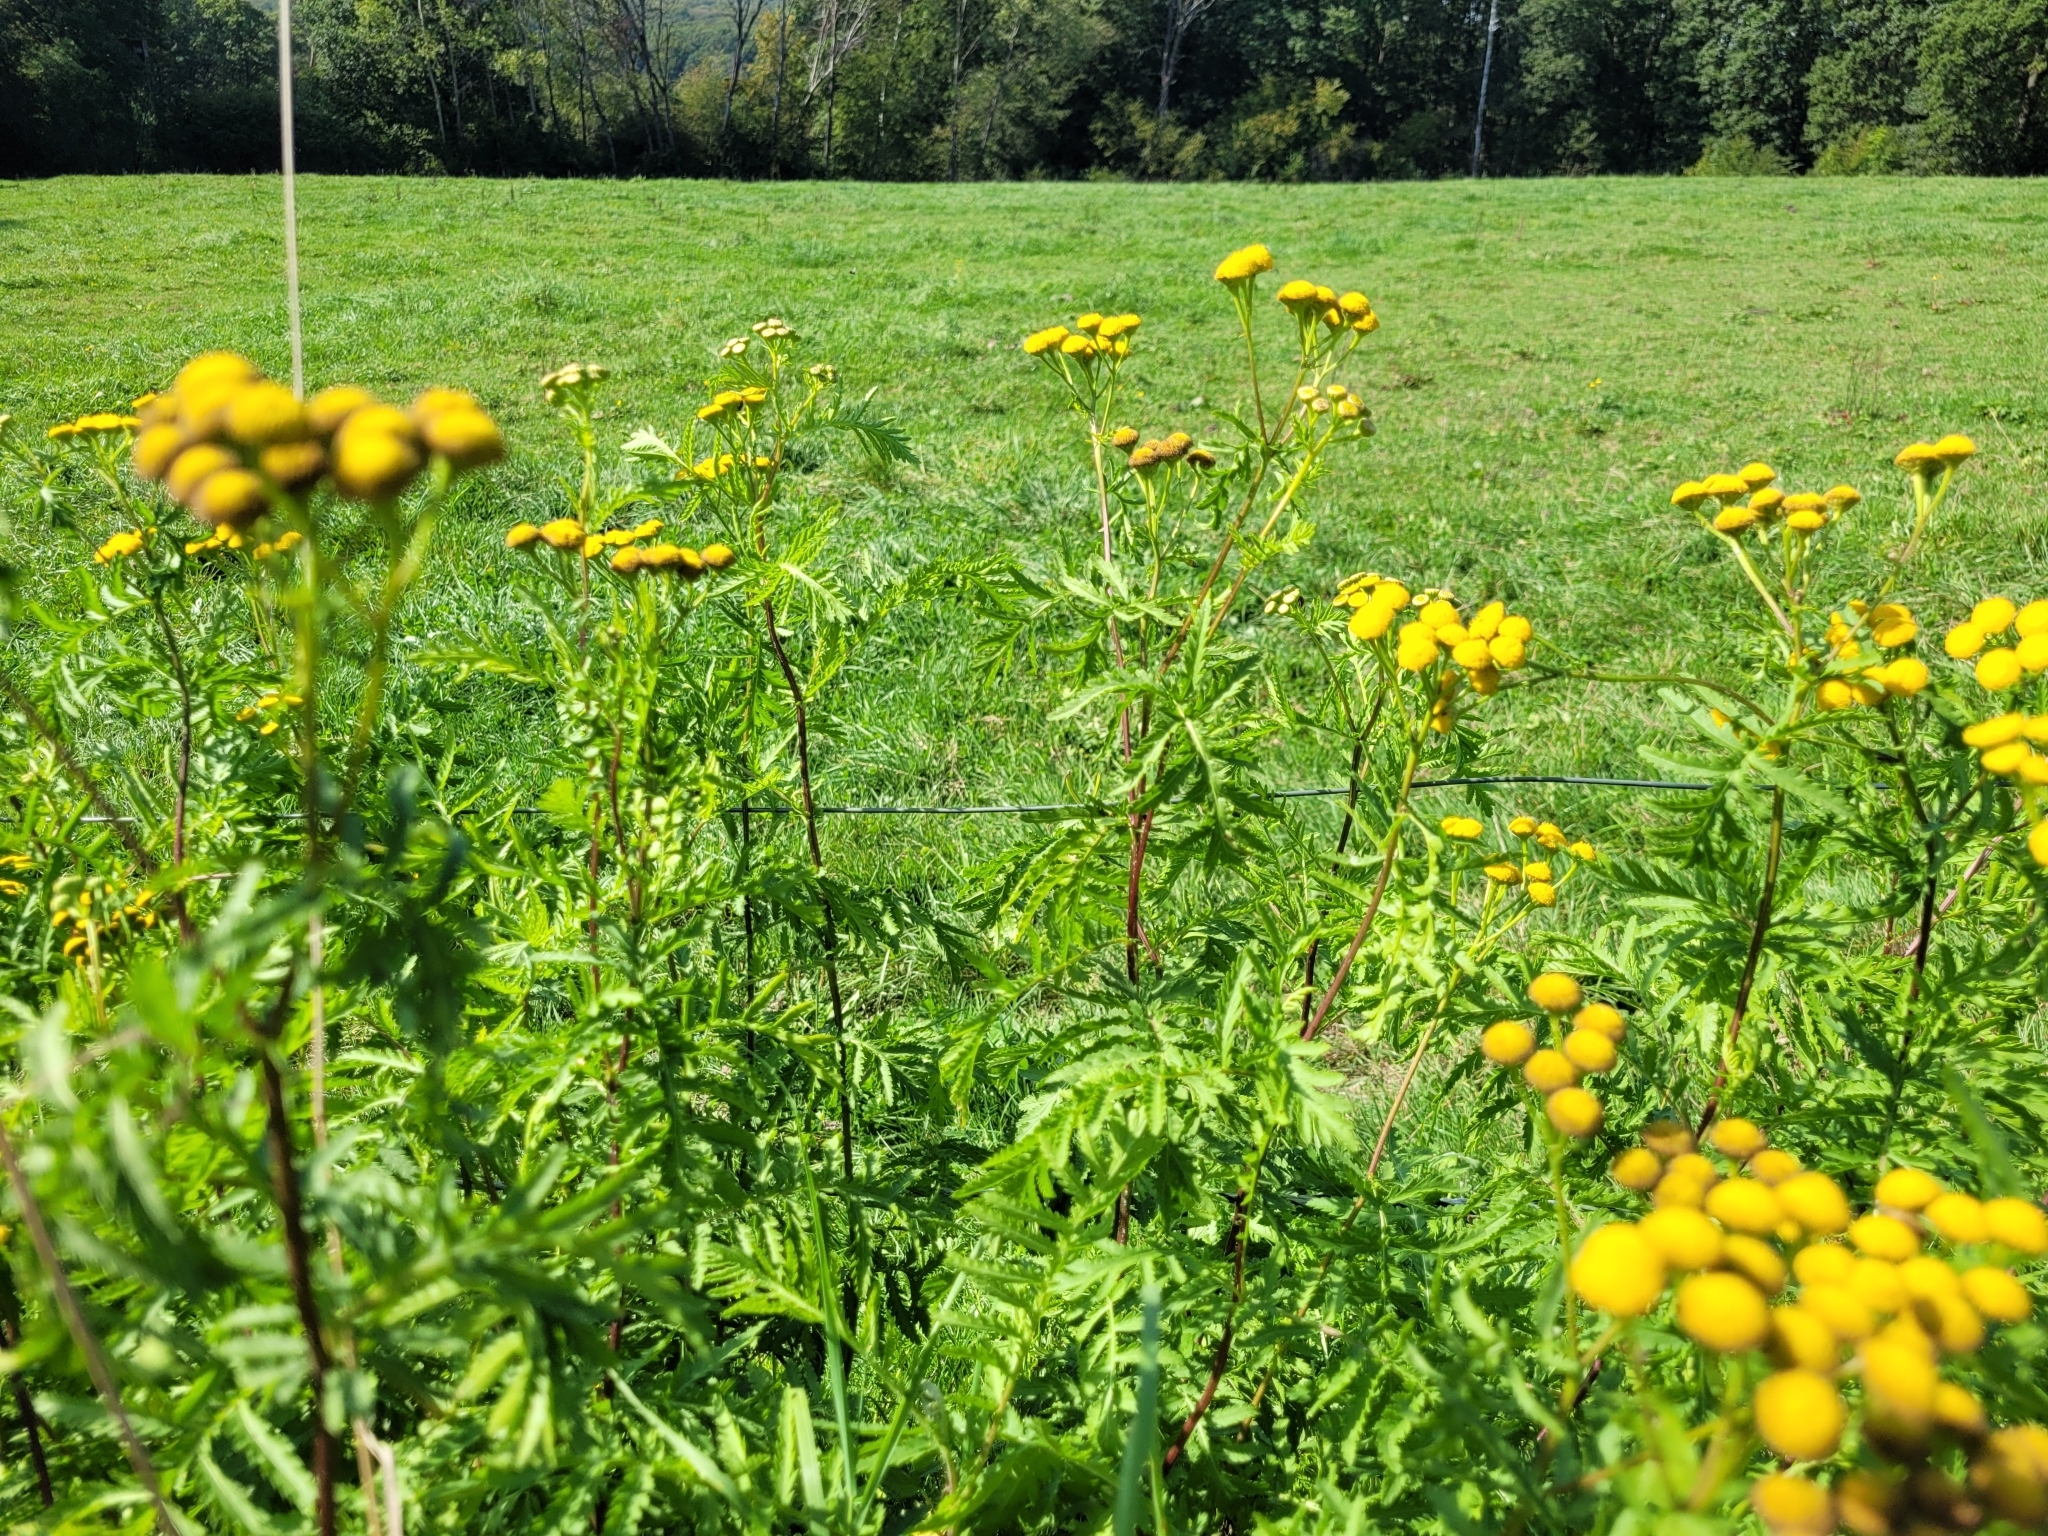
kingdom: Plantae
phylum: Tracheophyta
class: Magnoliopsida
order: Asterales
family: Asteraceae
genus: Tanacetum
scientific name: Tanacetum vulgare
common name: Common tansy
